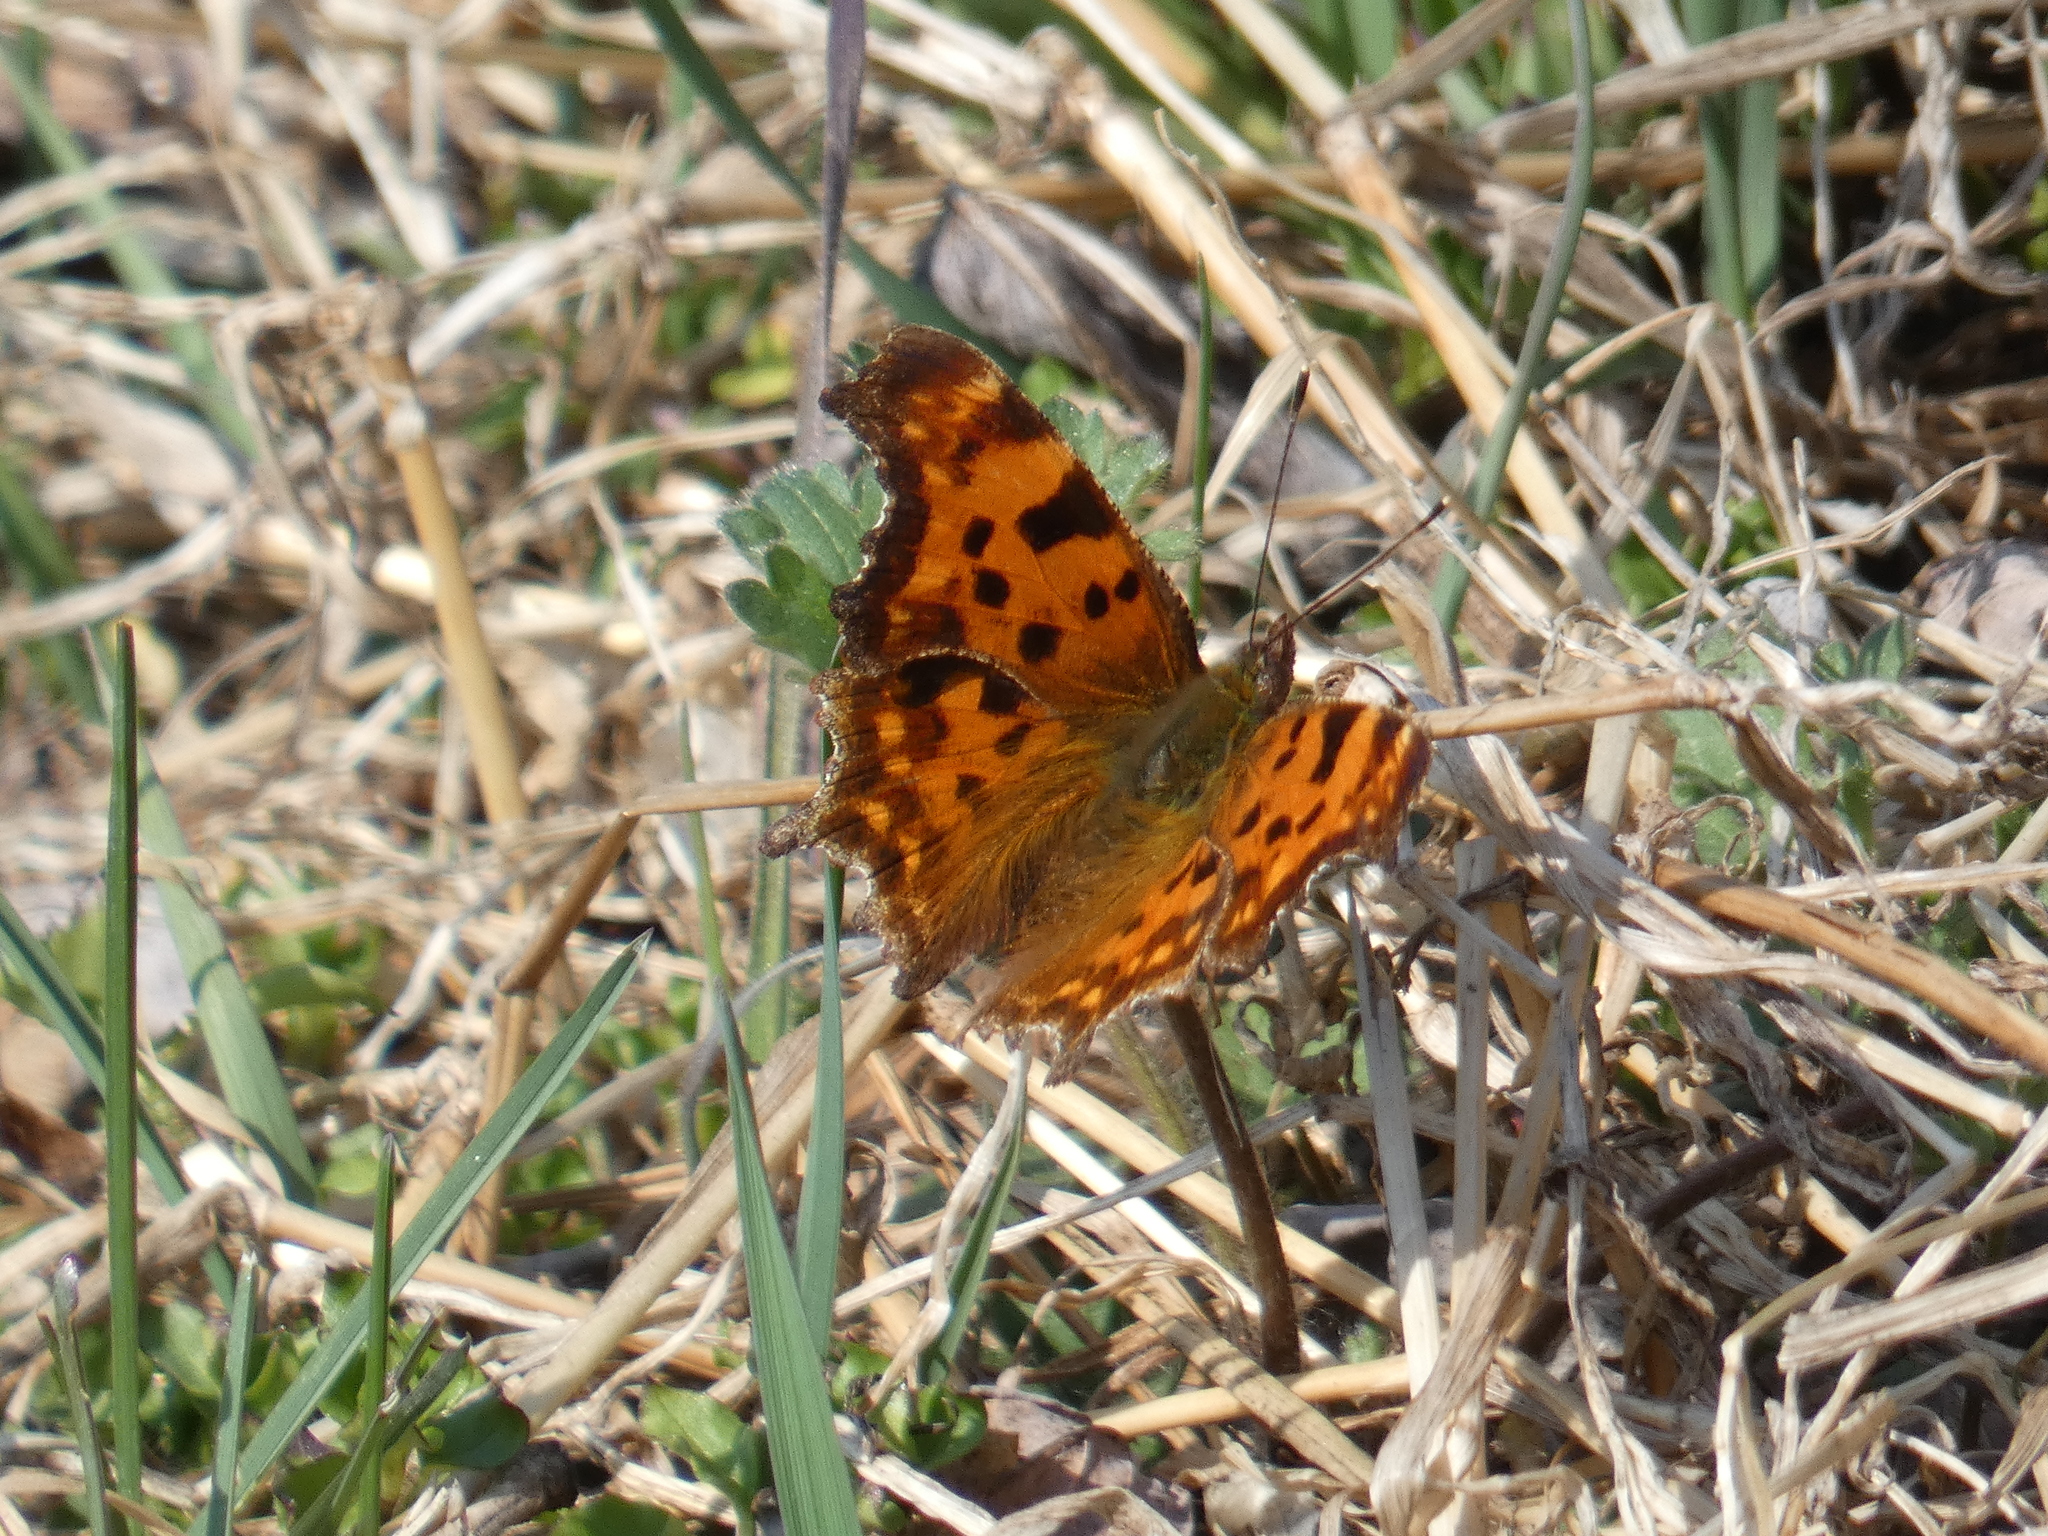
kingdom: Animalia
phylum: Arthropoda
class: Insecta
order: Lepidoptera
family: Nymphalidae
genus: Polygonia
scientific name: Polygonia c-album
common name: Comma
